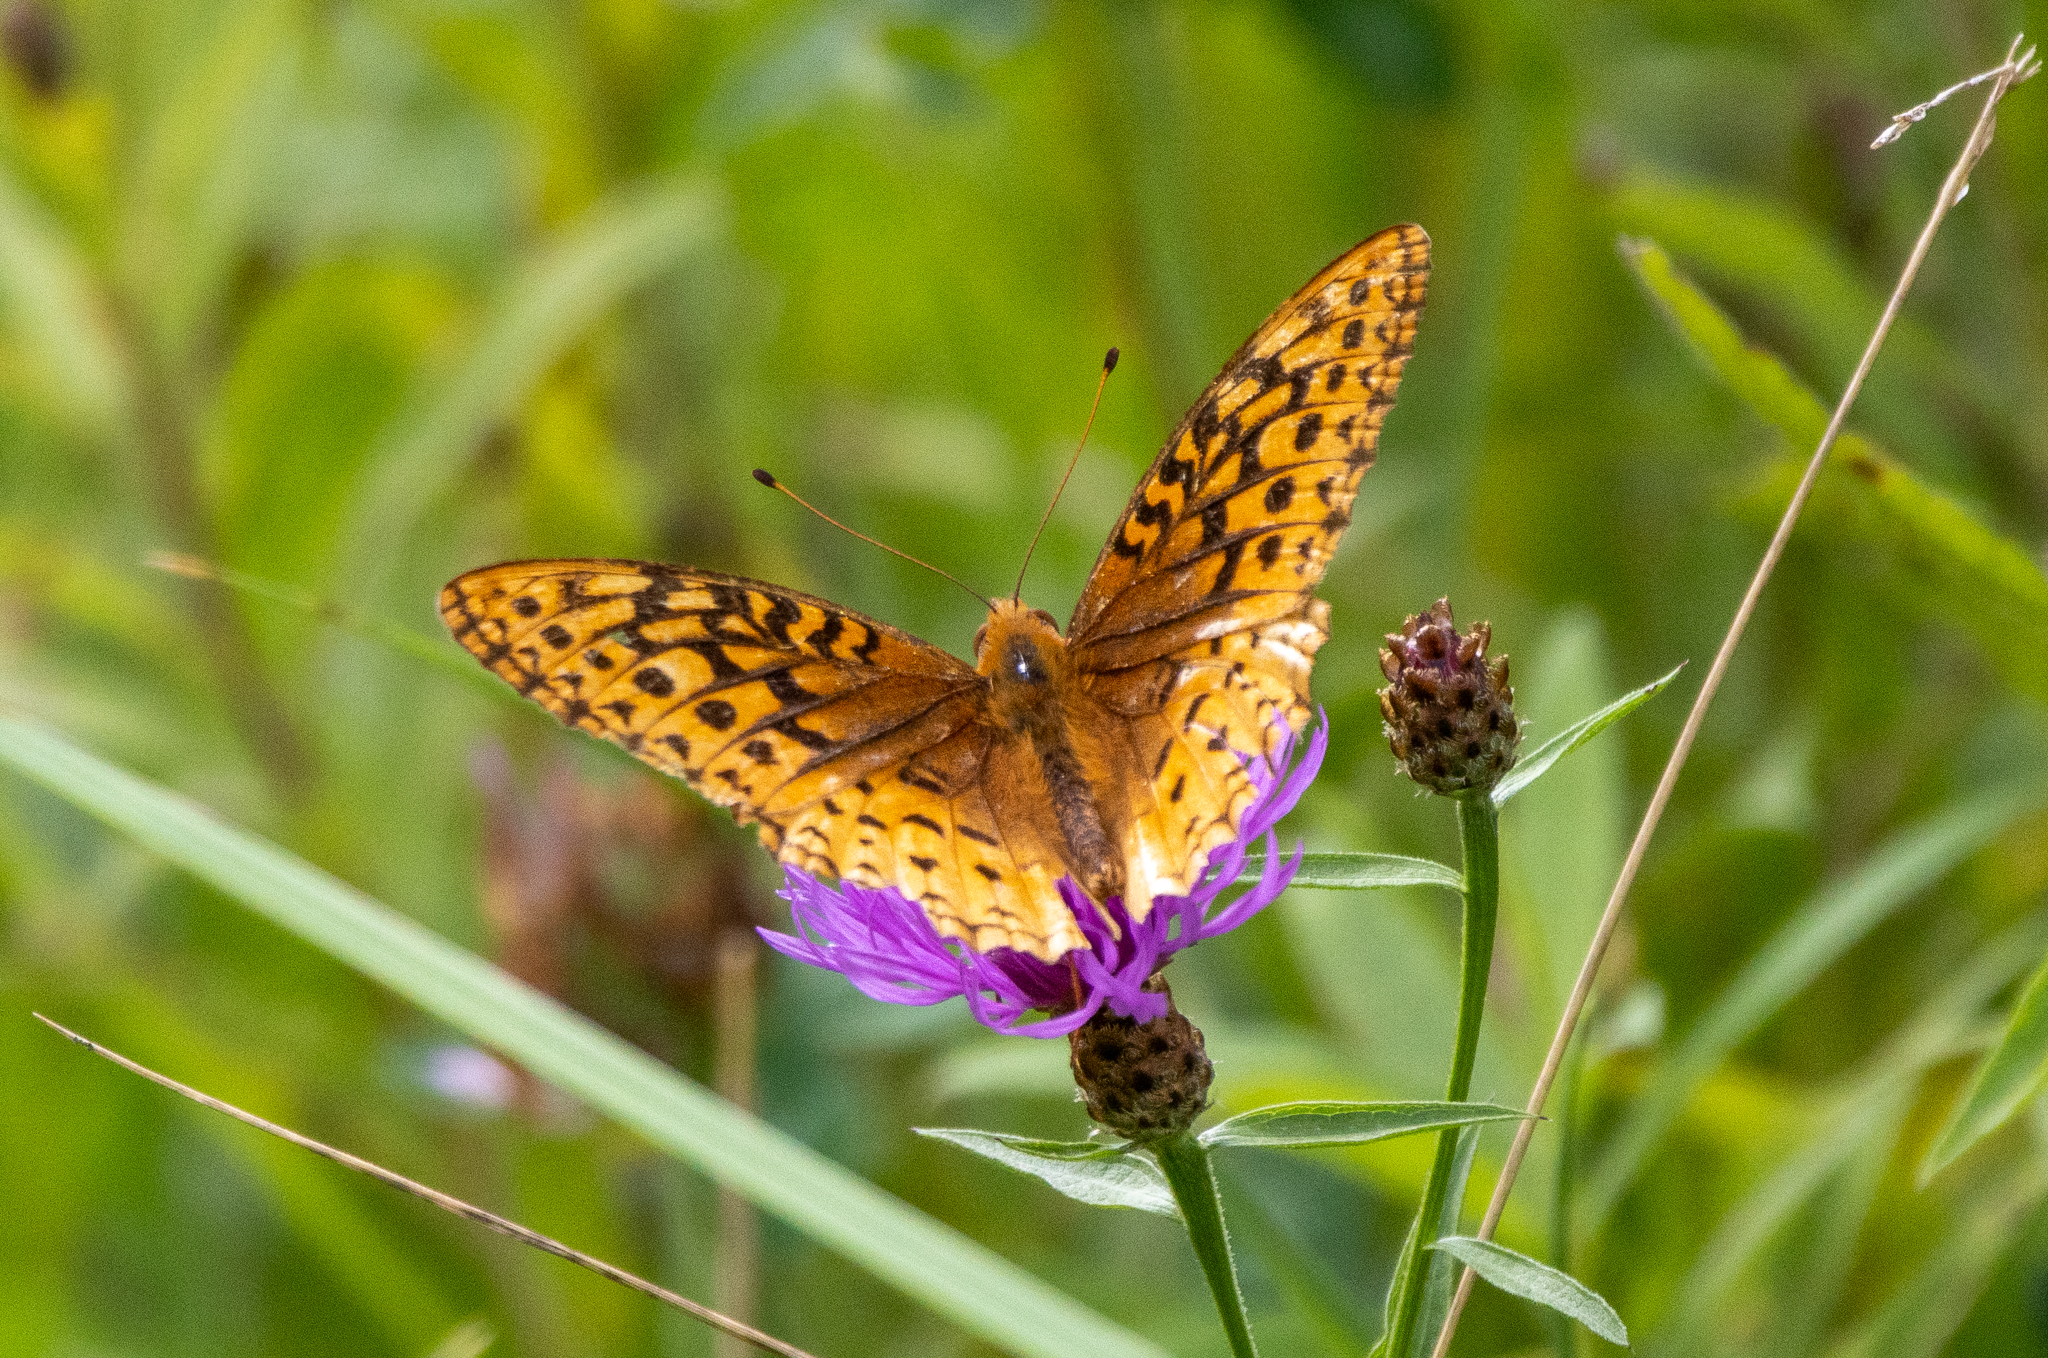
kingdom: Animalia
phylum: Arthropoda
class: Insecta
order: Lepidoptera
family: Nymphalidae
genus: Speyeria
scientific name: Speyeria cybele
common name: Great spangled fritillary
